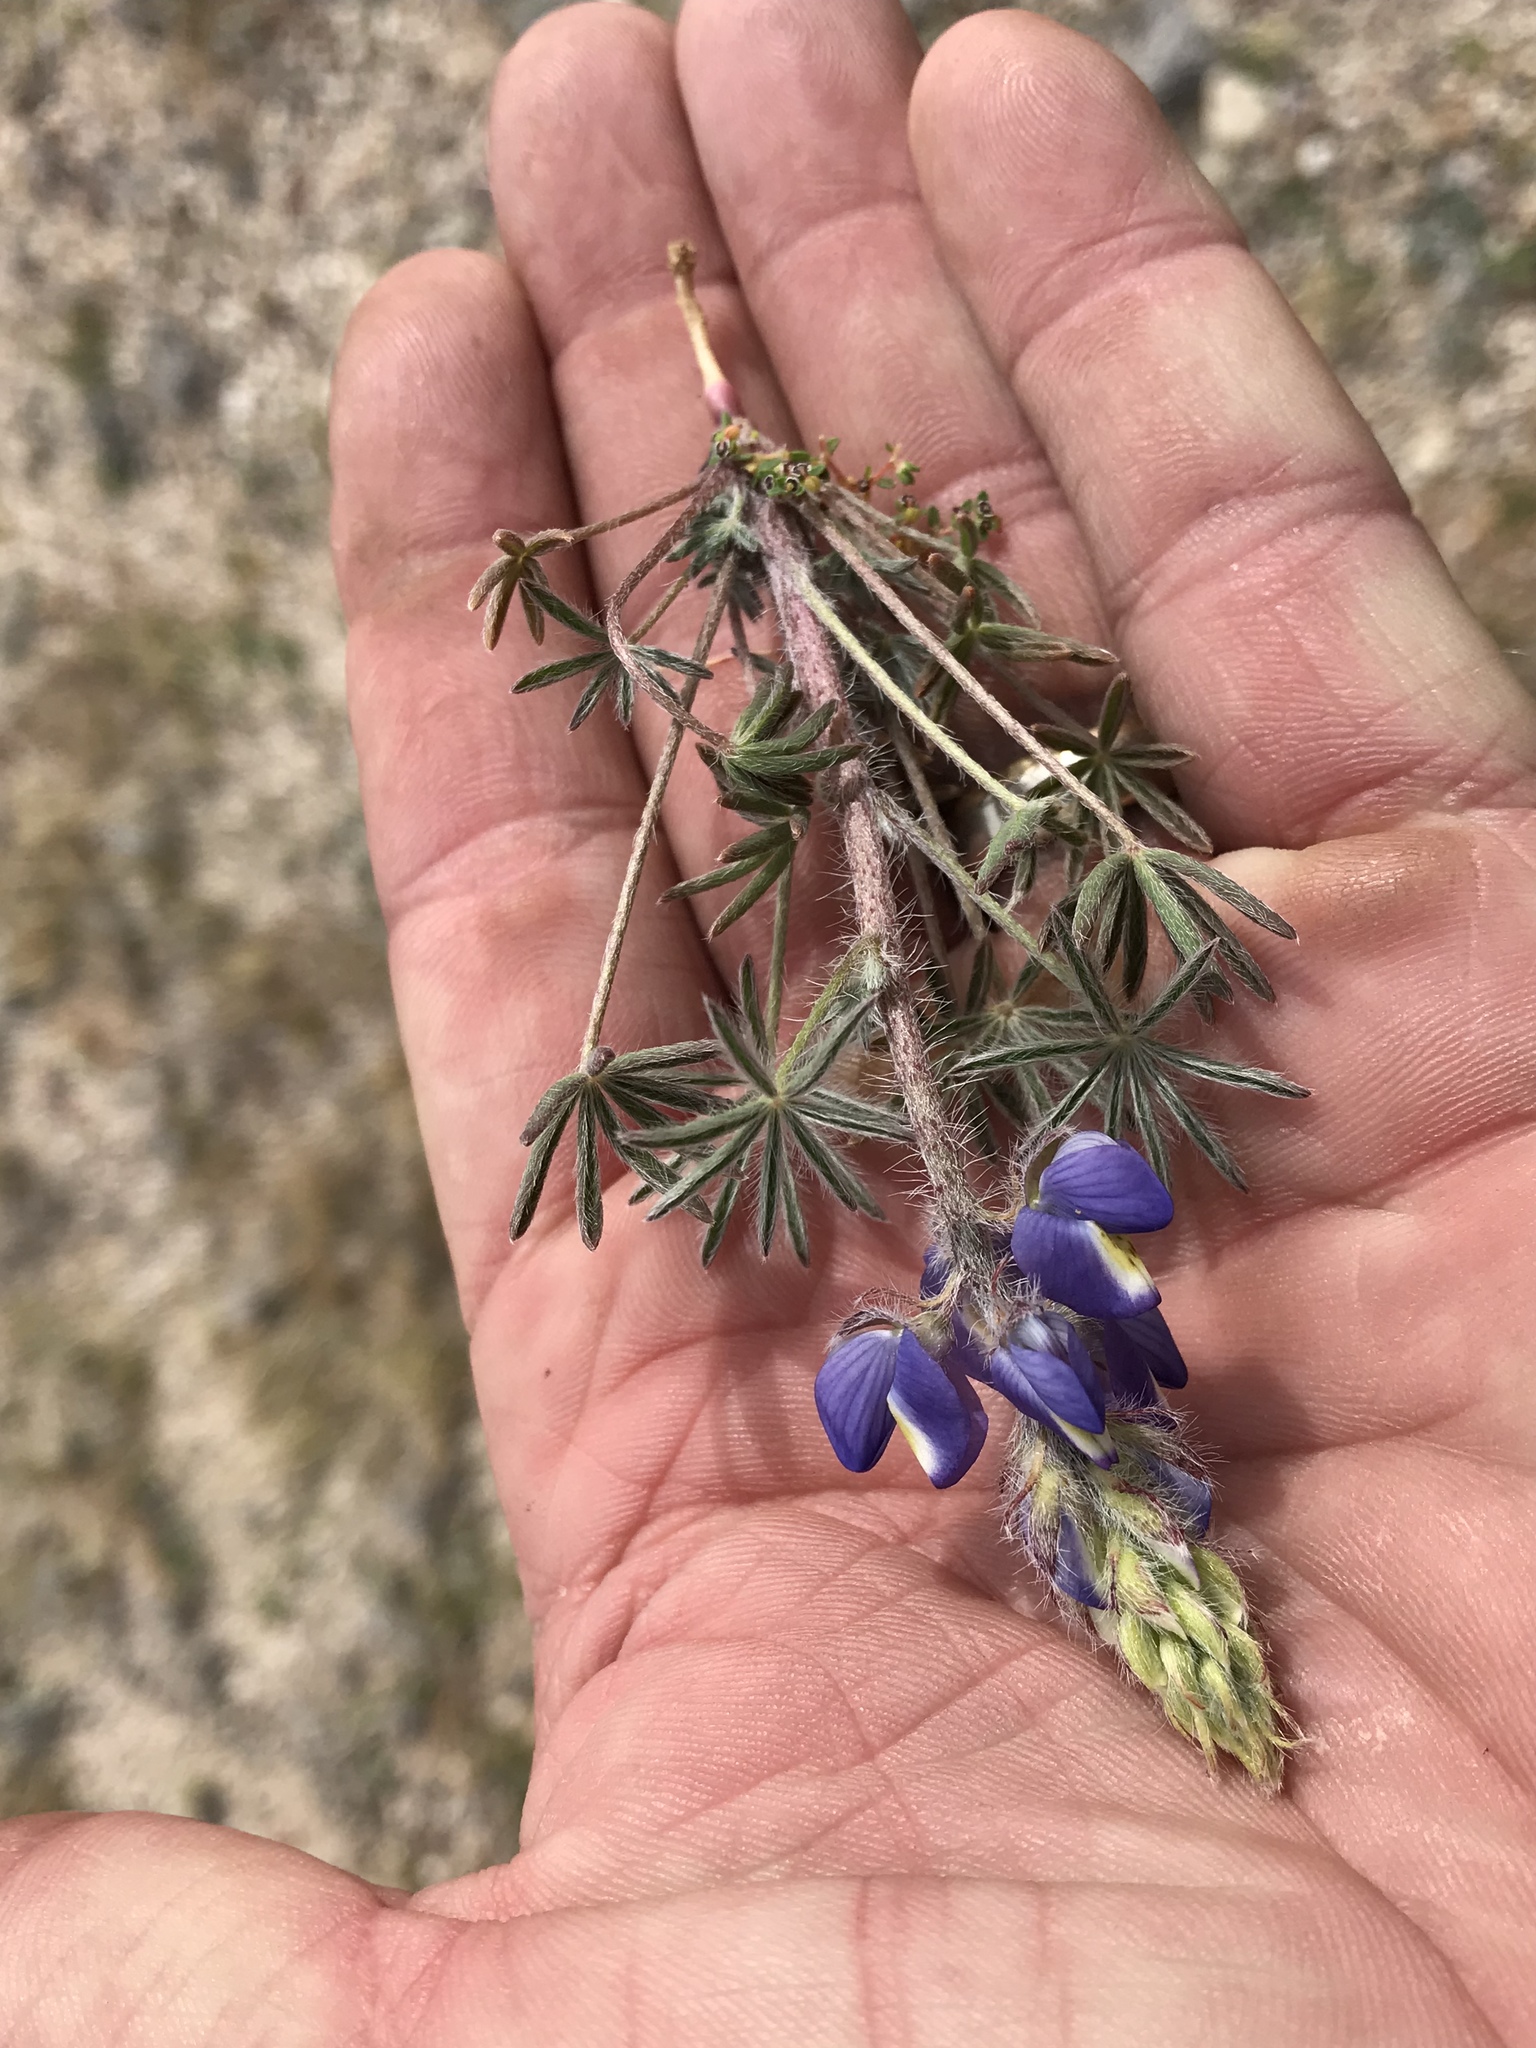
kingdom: Plantae
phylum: Tracheophyta
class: Magnoliopsida
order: Fabales
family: Fabaceae
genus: Lupinus
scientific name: Lupinus sparsiflorus
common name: Coulter's lupine
